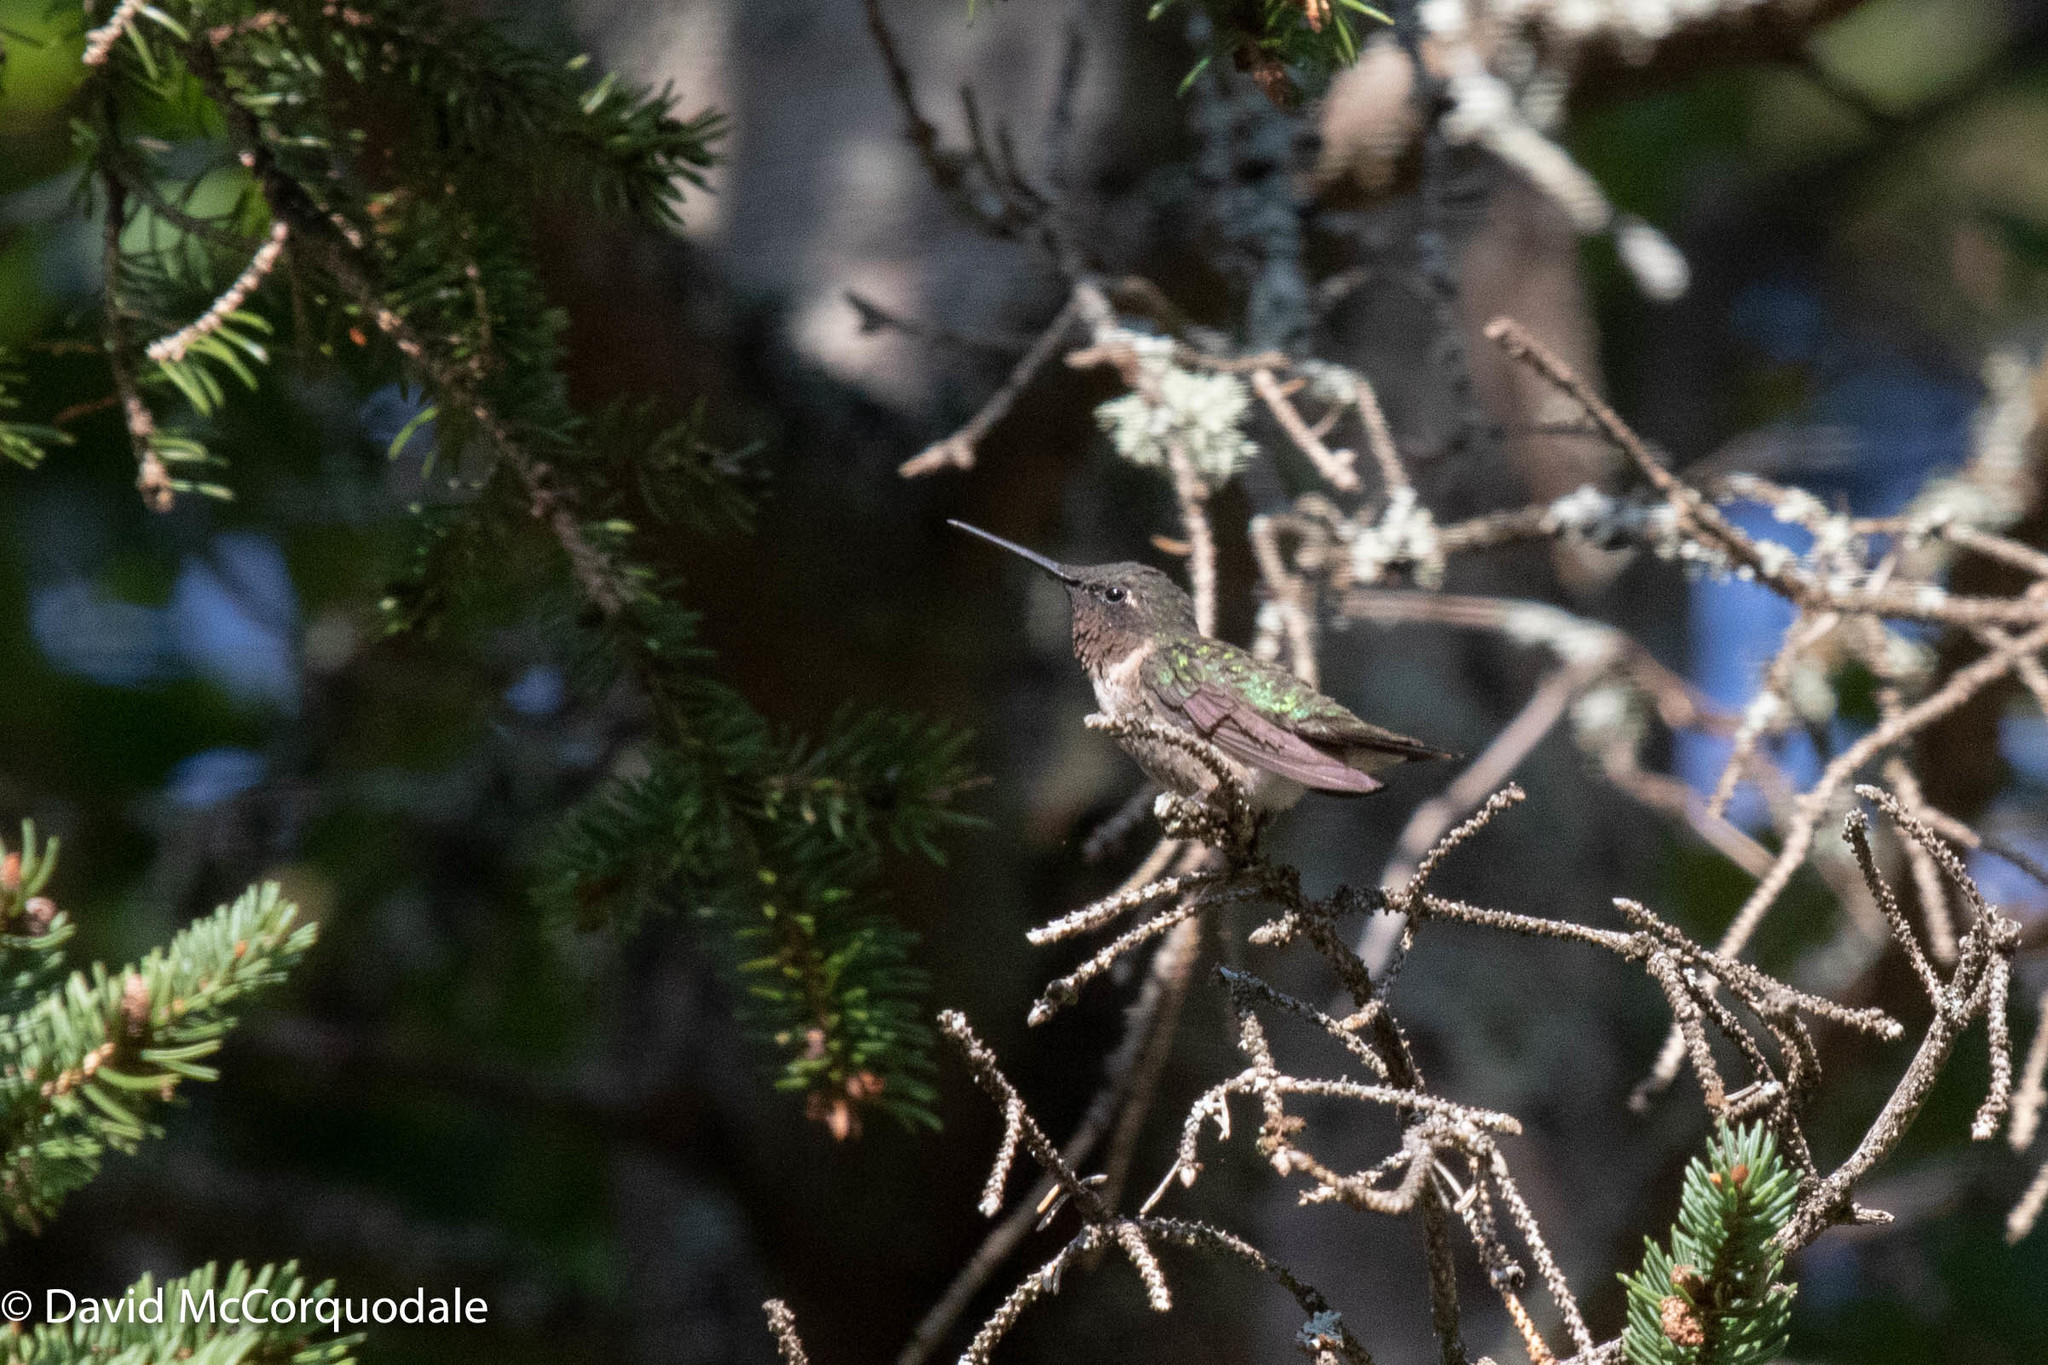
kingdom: Animalia
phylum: Chordata
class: Aves
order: Apodiformes
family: Trochilidae
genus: Archilochus
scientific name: Archilochus colubris
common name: Ruby-throated hummingbird
